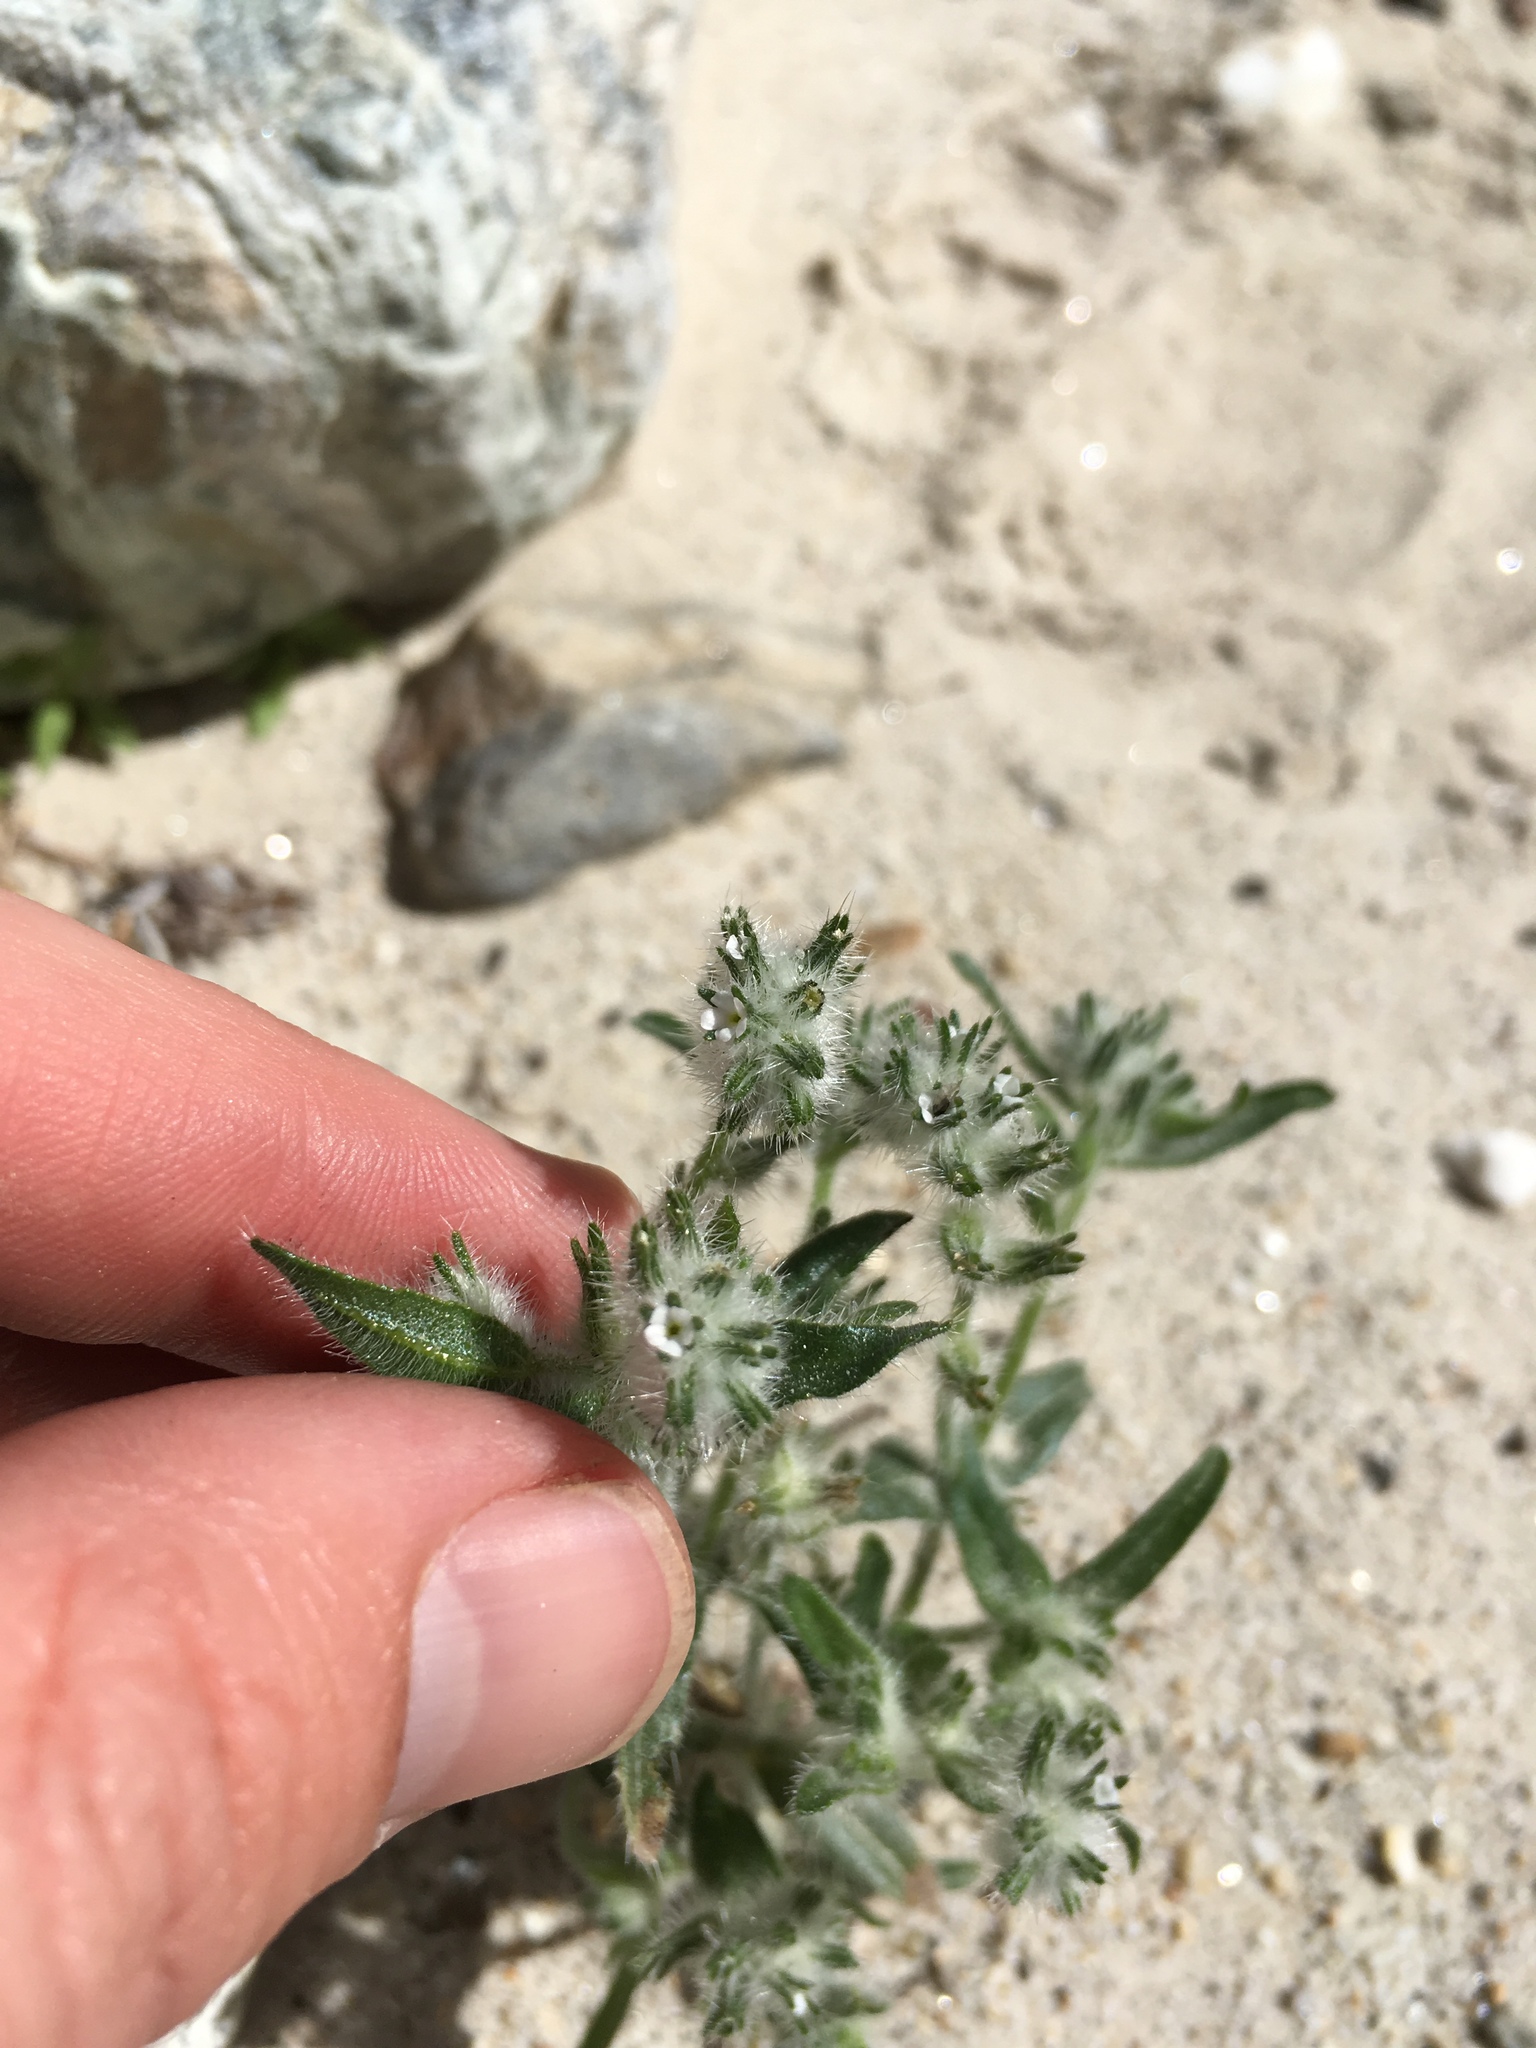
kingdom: Plantae
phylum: Tracheophyta
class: Magnoliopsida
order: Boraginales
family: Boraginaceae
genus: Simpsonanthus
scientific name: Simpsonanthus jonesii
